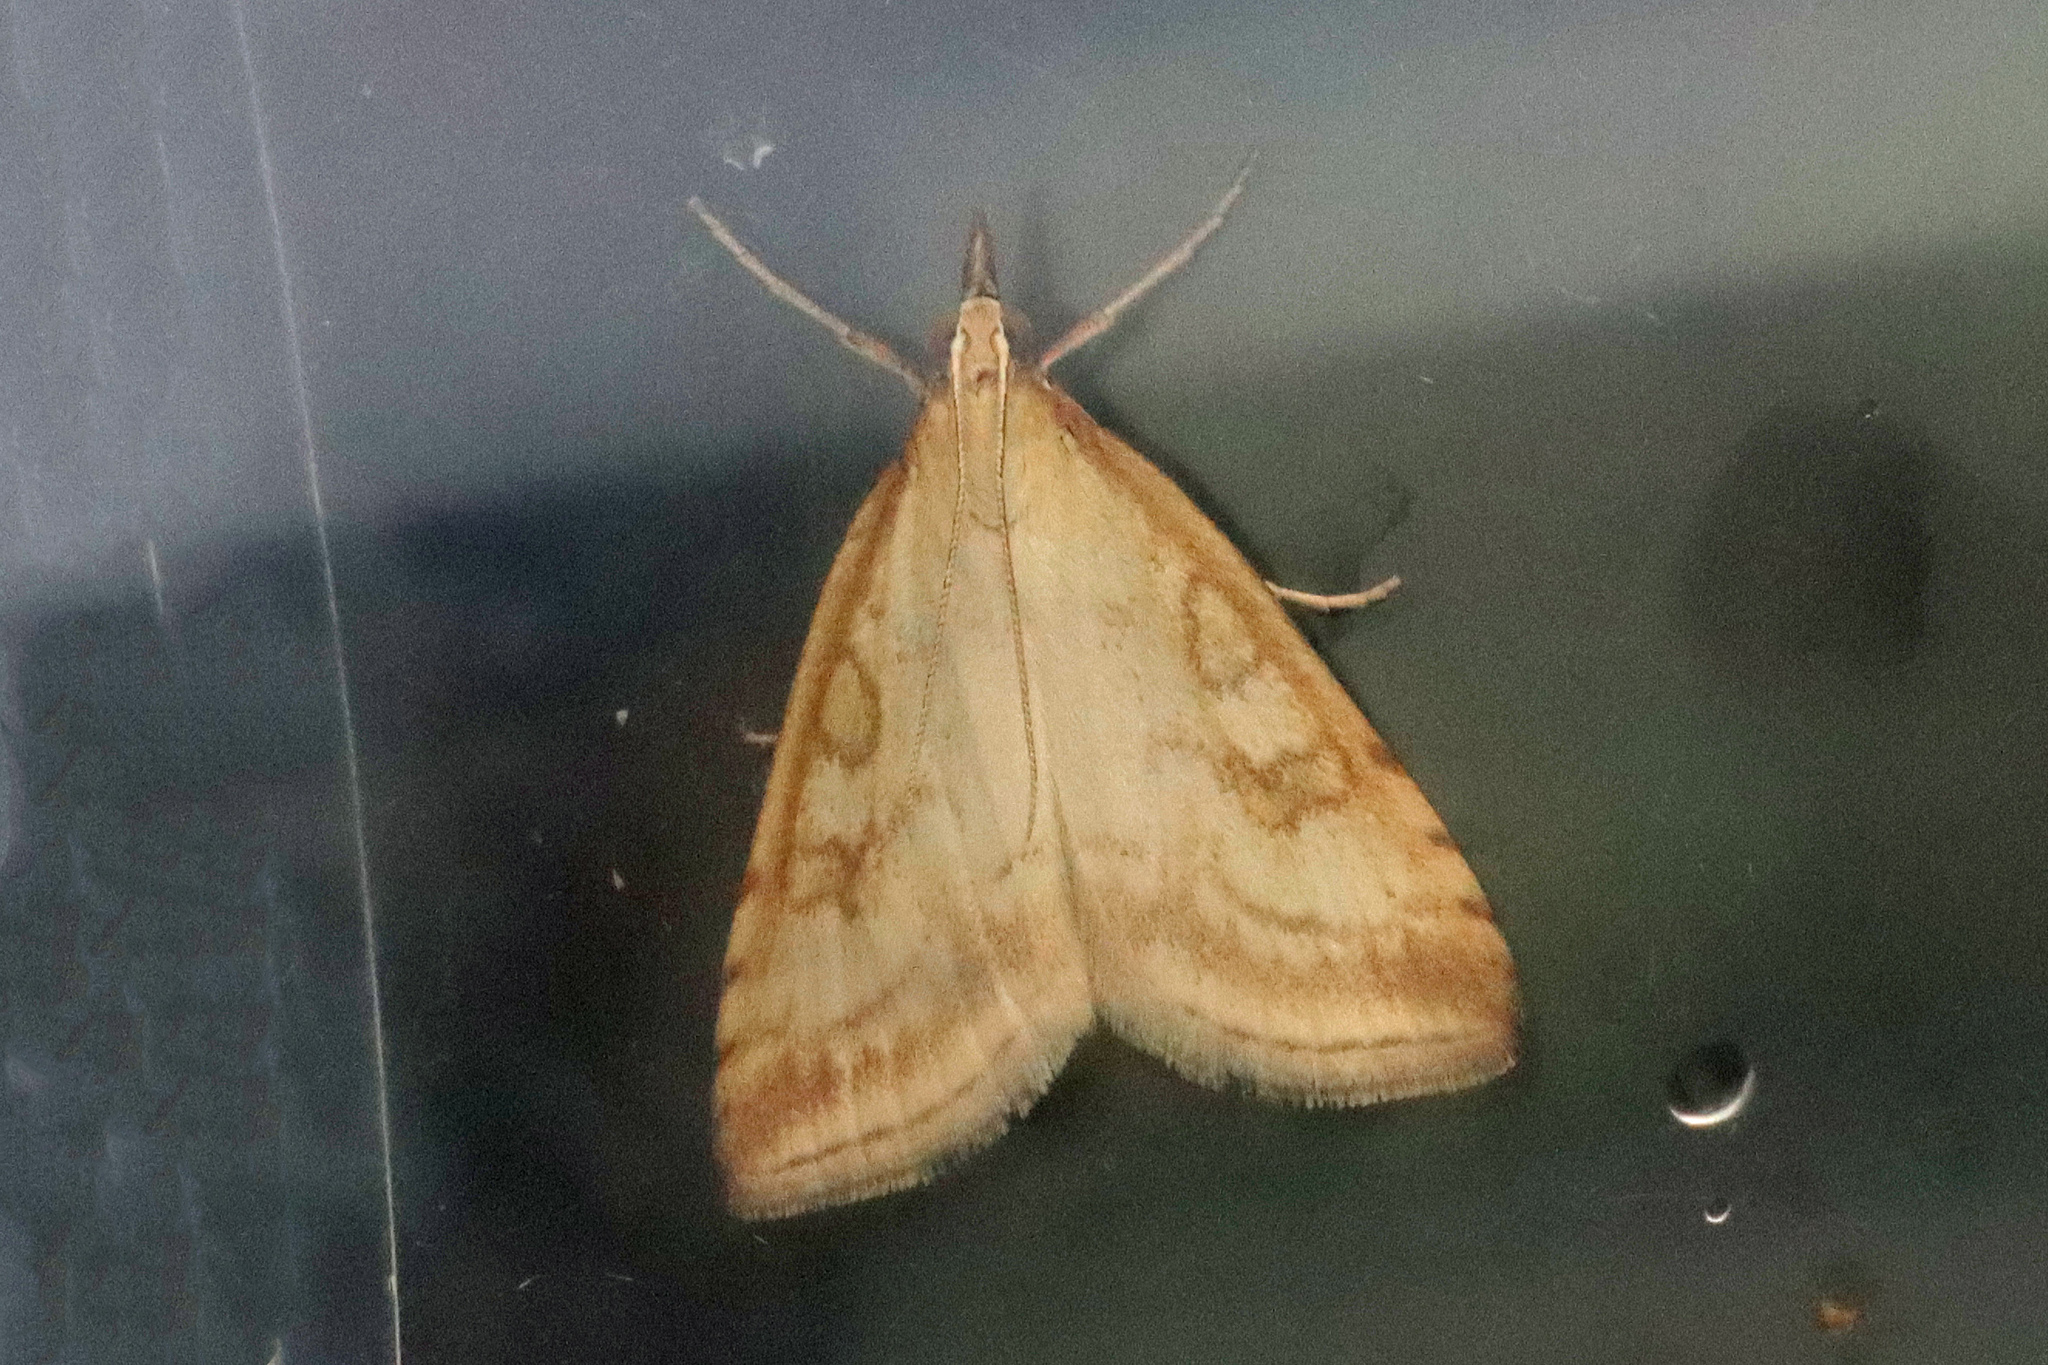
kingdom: Animalia
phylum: Arthropoda
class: Insecta
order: Lepidoptera
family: Crambidae
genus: Udea
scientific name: Udea lutealis
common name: Pale straw pearl
